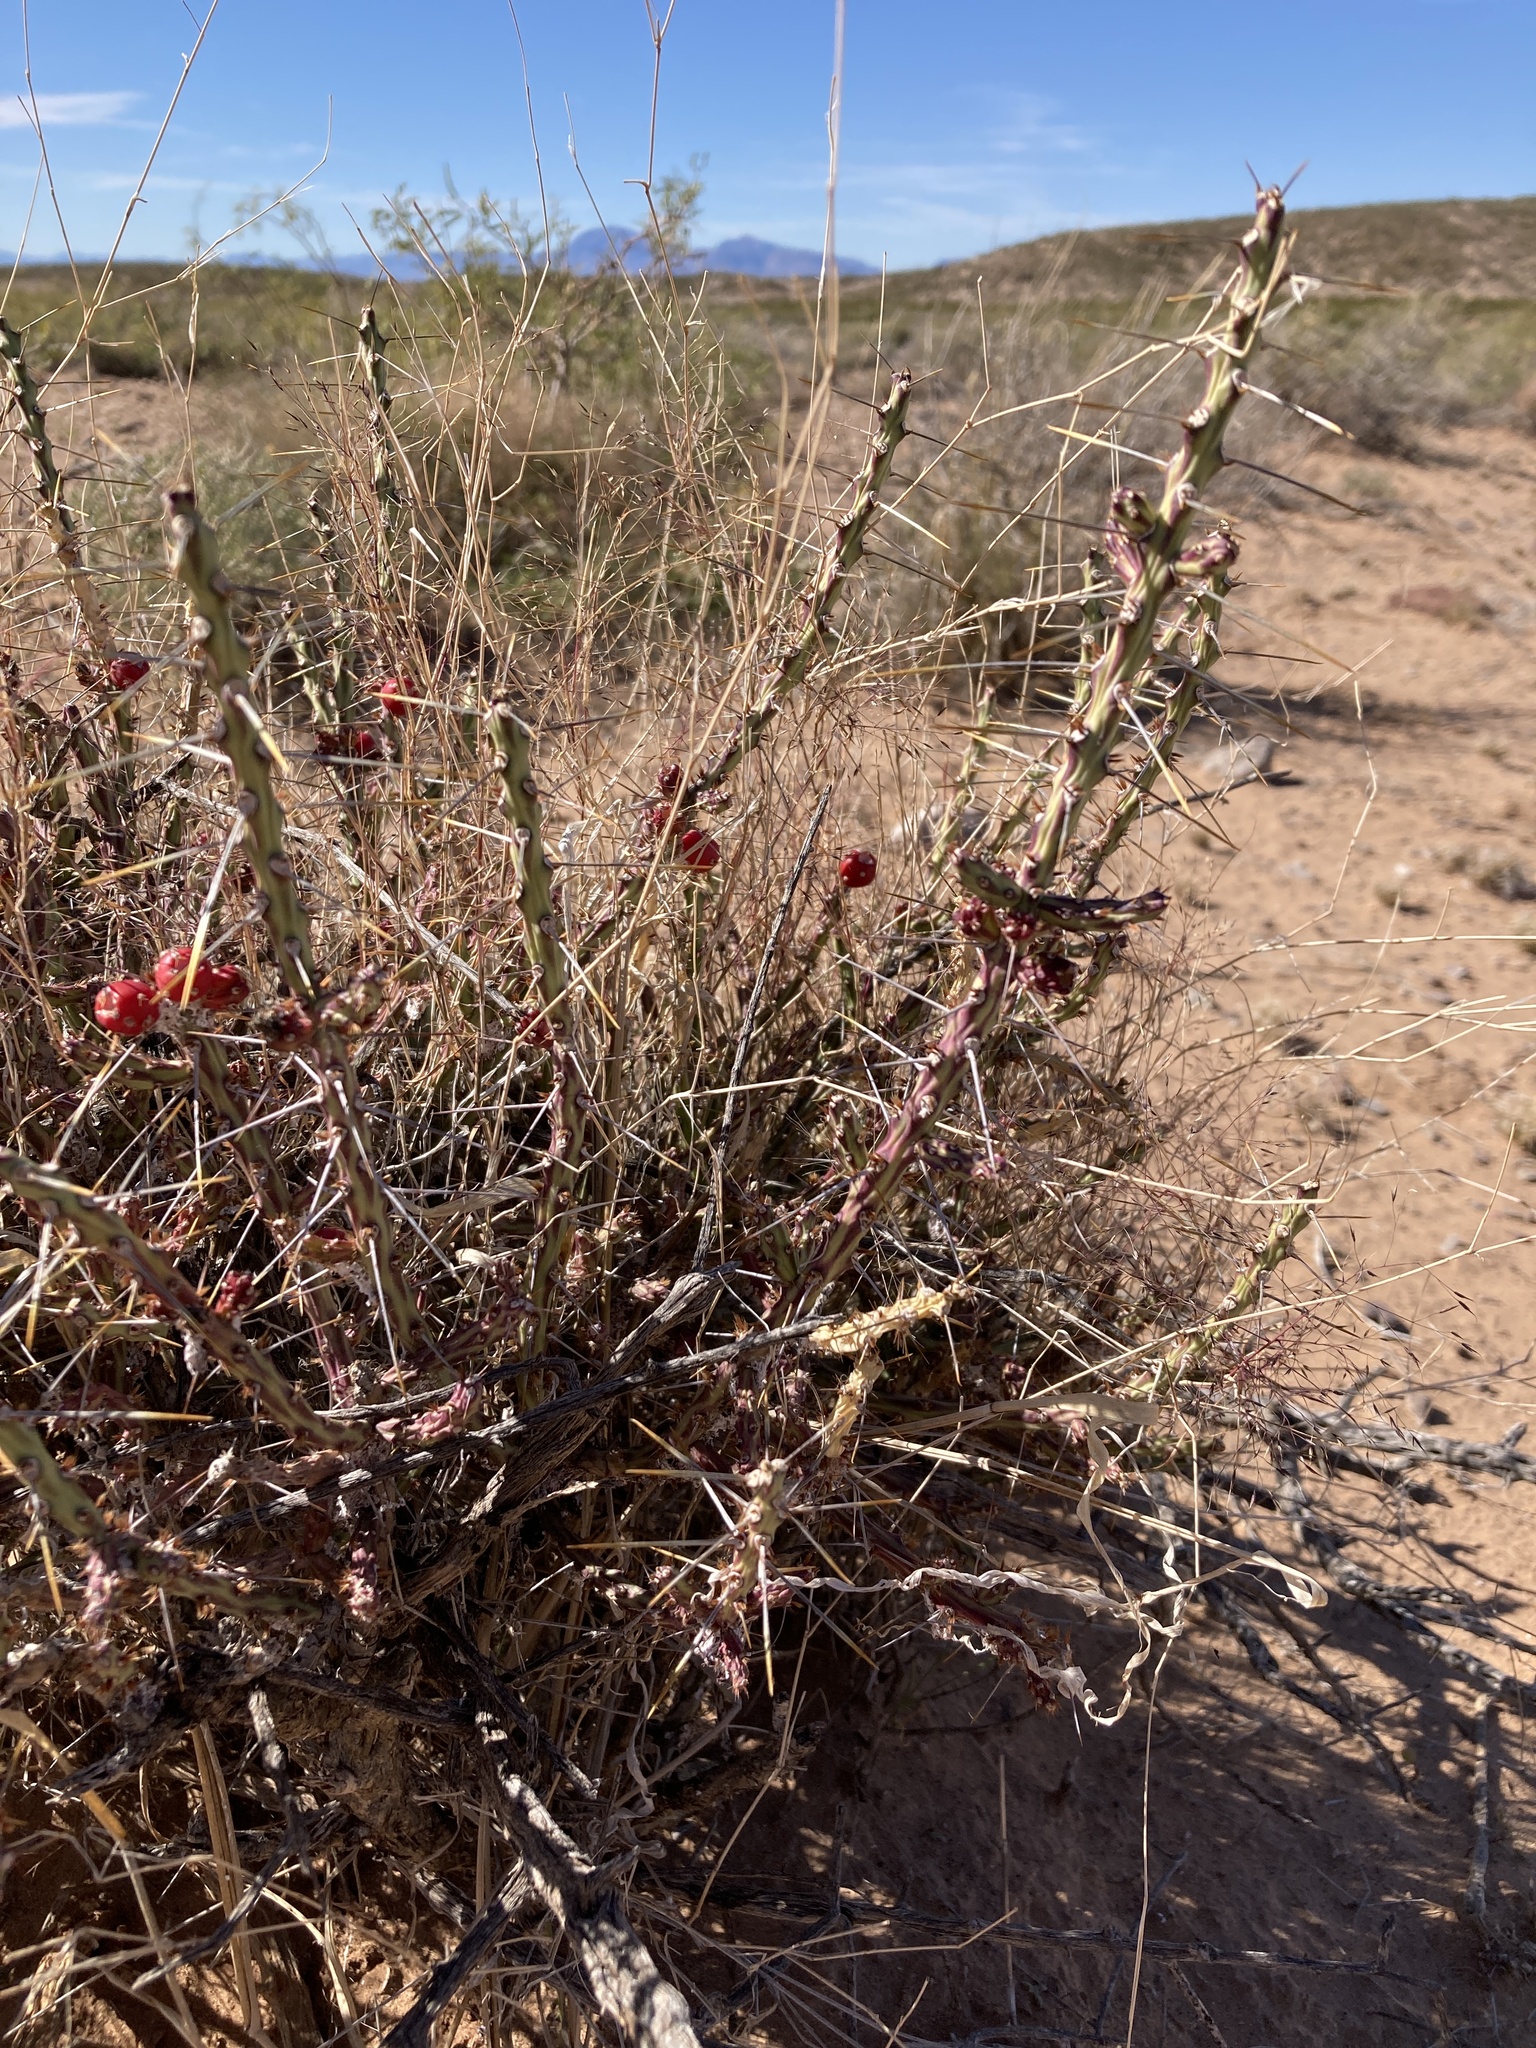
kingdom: Plantae
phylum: Tracheophyta
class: Magnoliopsida
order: Caryophyllales
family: Cactaceae
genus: Cylindropuntia
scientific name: Cylindropuntia leptocaulis
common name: Christmas cactus
